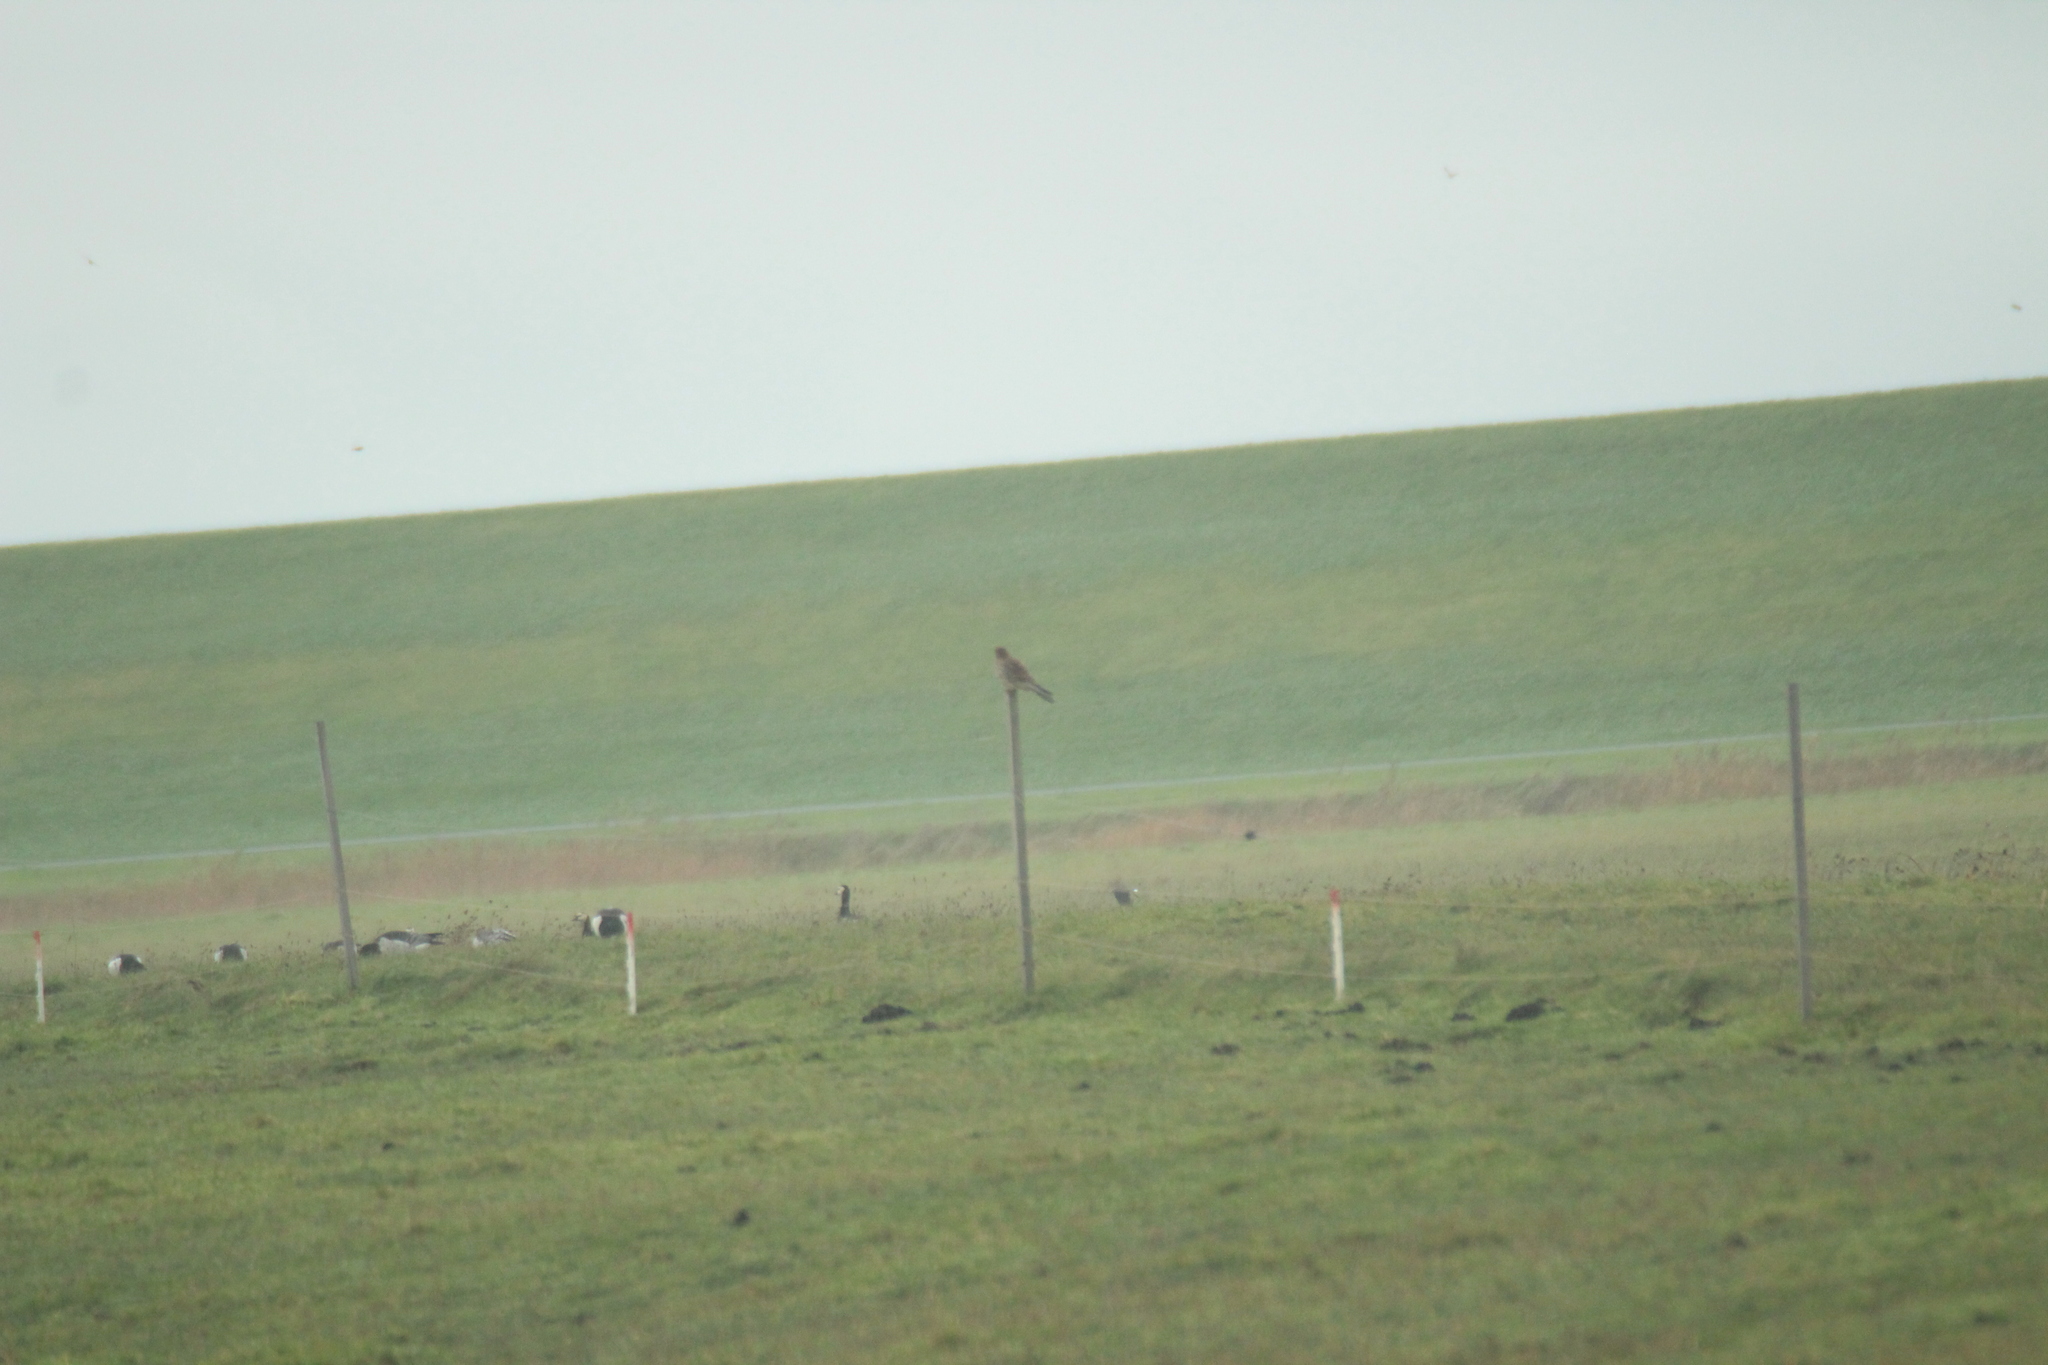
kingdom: Animalia
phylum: Chordata
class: Aves
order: Falconiformes
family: Falconidae
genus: Falco
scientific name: Falco tinnunculus
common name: Common kestrel
